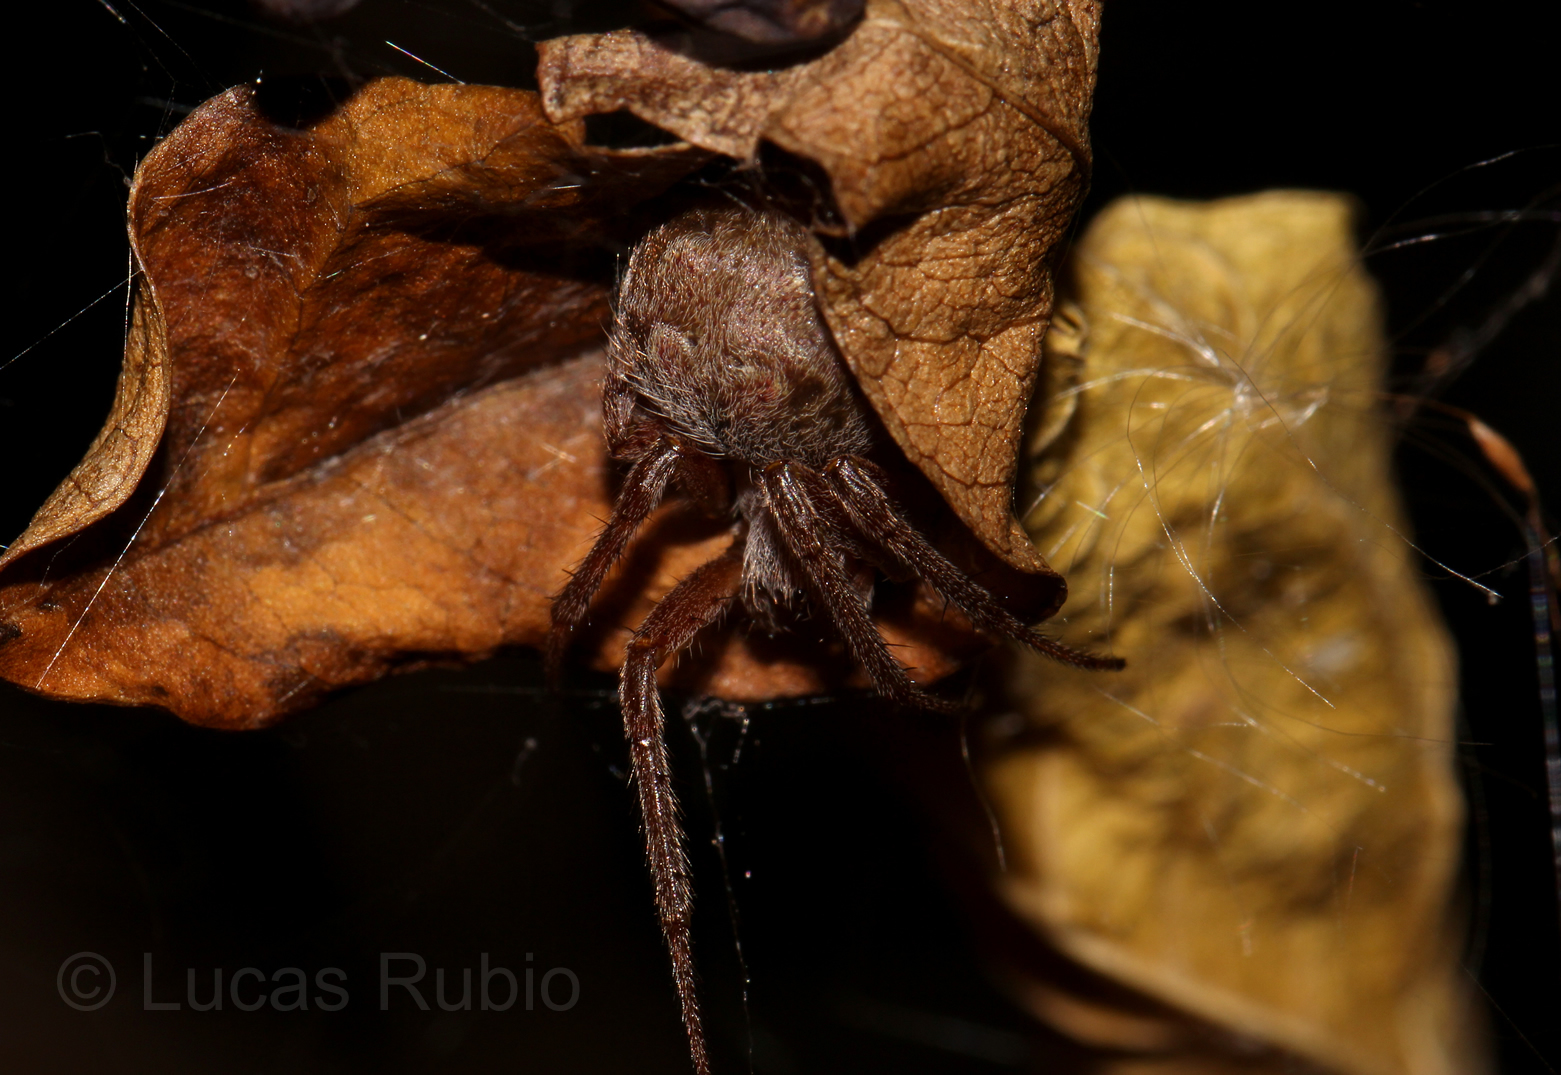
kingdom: Animalia
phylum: Arthropoda
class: Arachnida
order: Araneae
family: Araneidae
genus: Araneus
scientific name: Araneus omnicolor
